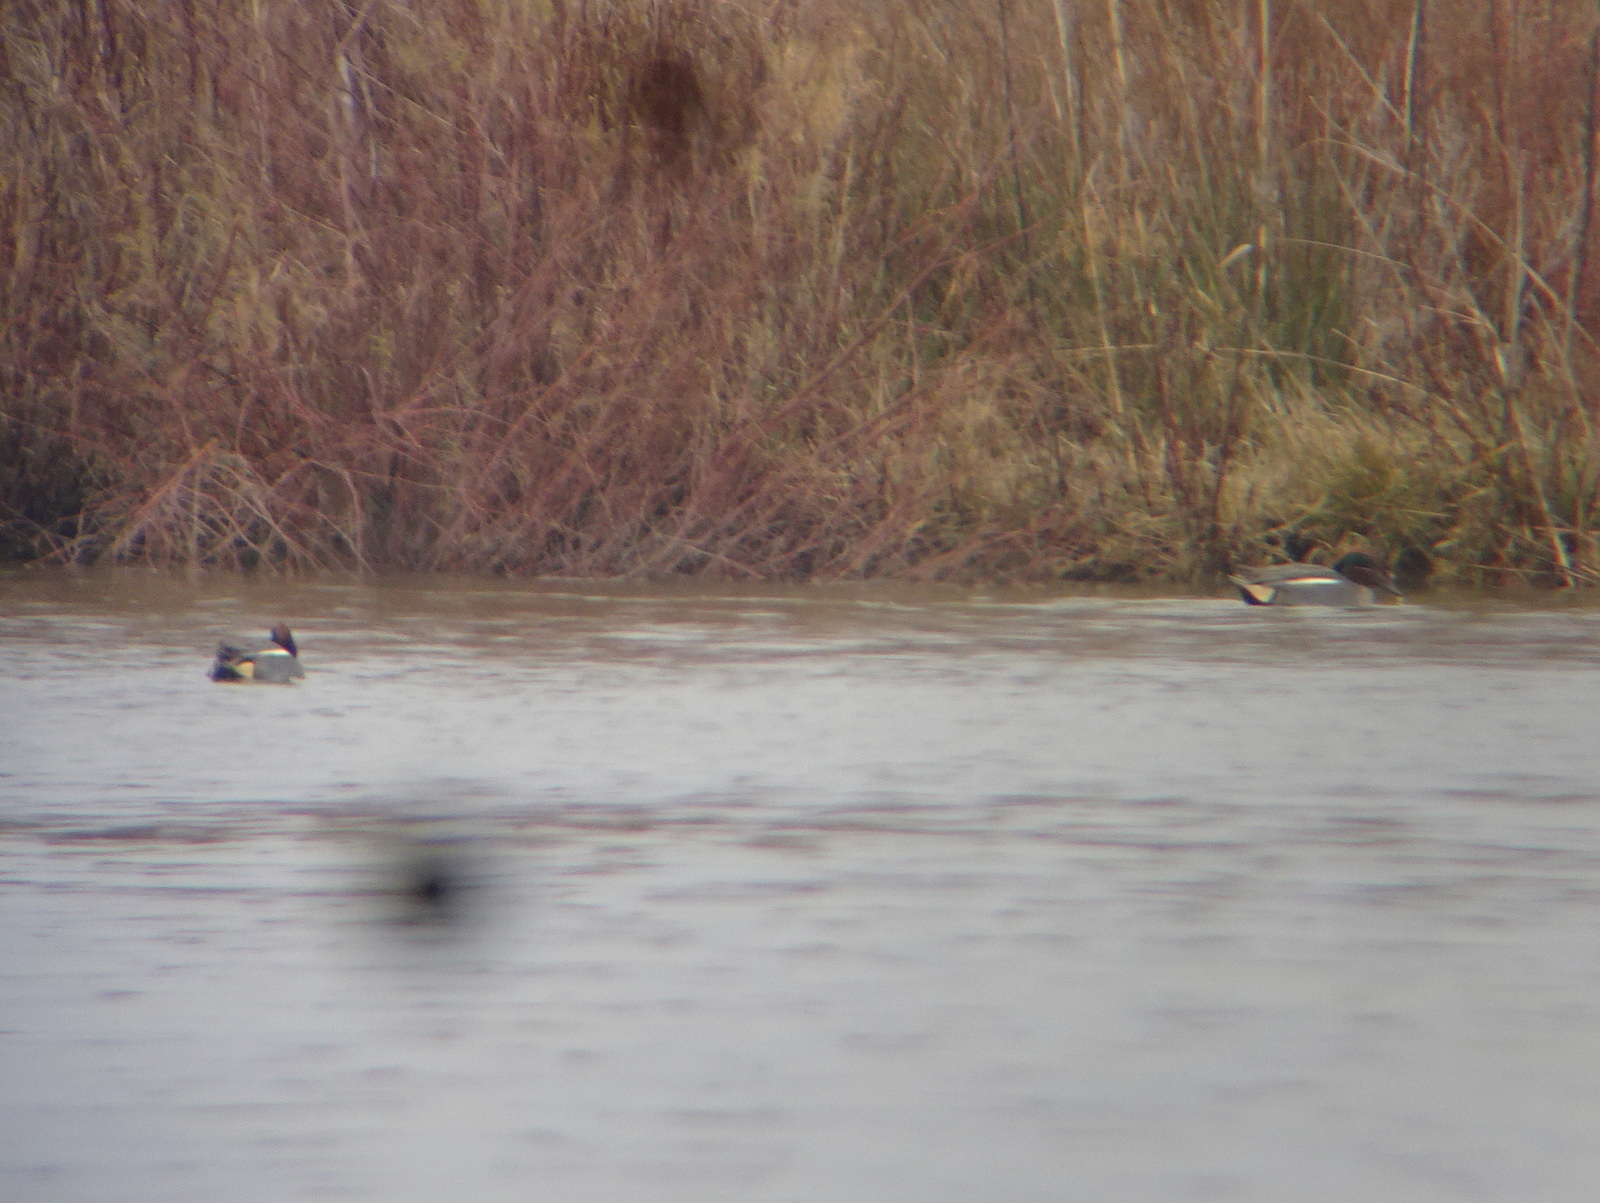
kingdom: Animalia
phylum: Chordata
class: Aves
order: Anseriformes
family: Anatidae
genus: Anas
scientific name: Anas crecca
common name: Eurasian teal
